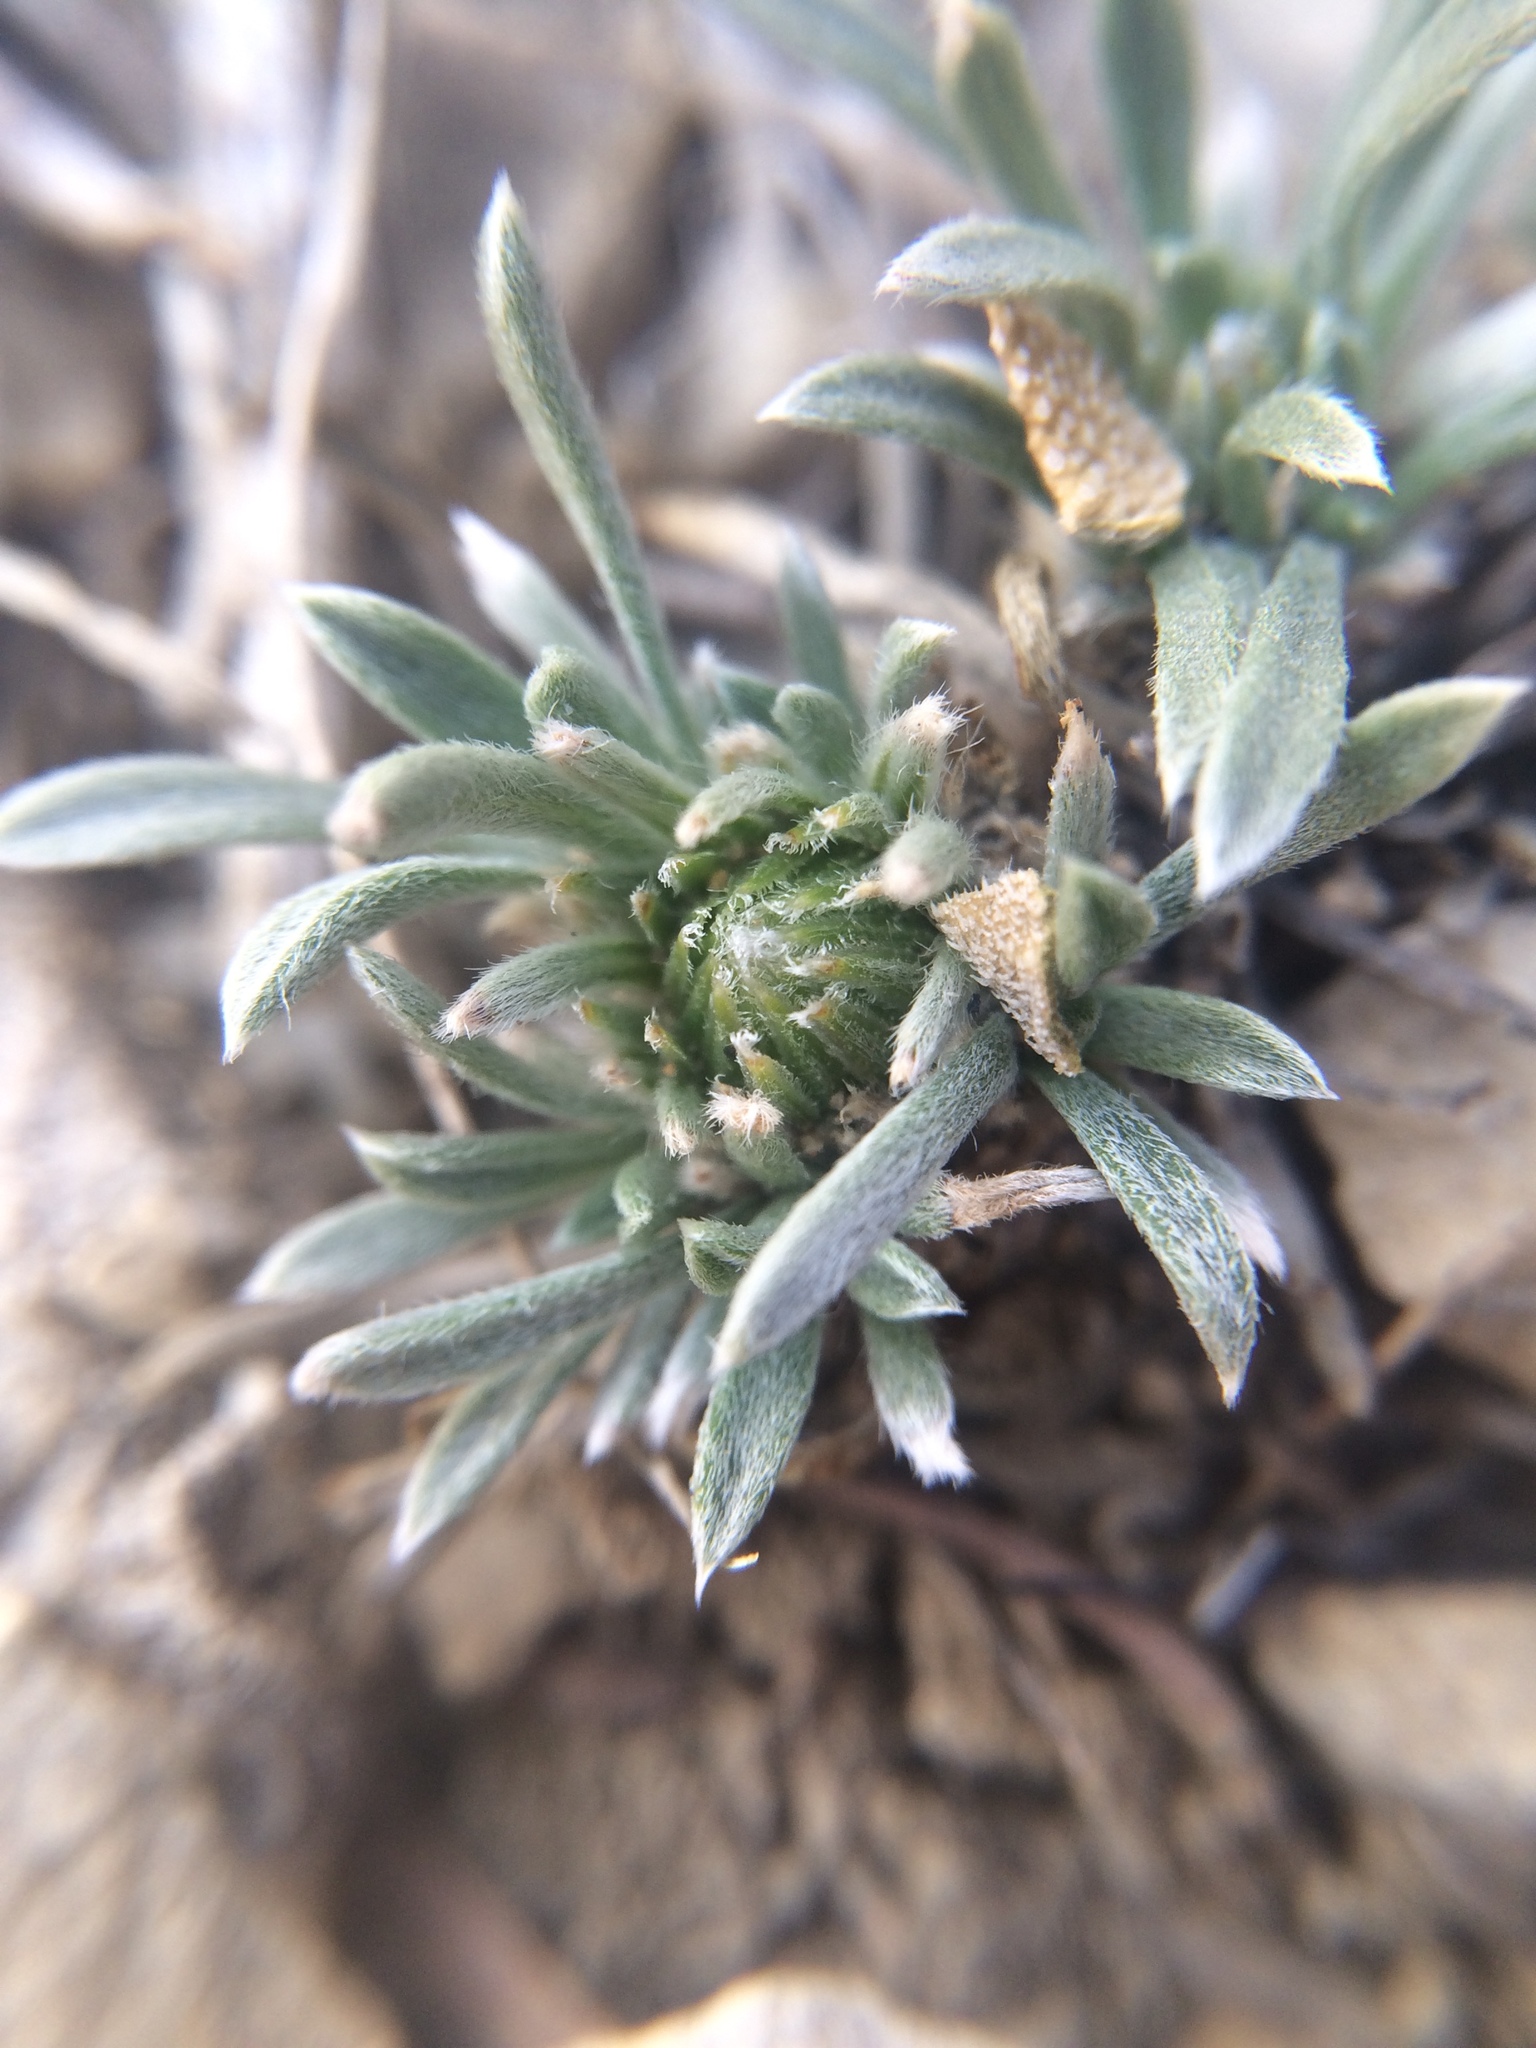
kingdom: Plantae
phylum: Tracheophyta
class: Magnoliopsida
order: Asterales
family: Asteraceae
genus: Townsendia
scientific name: Townsendia hookeri
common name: Hooker's townsend daisy
